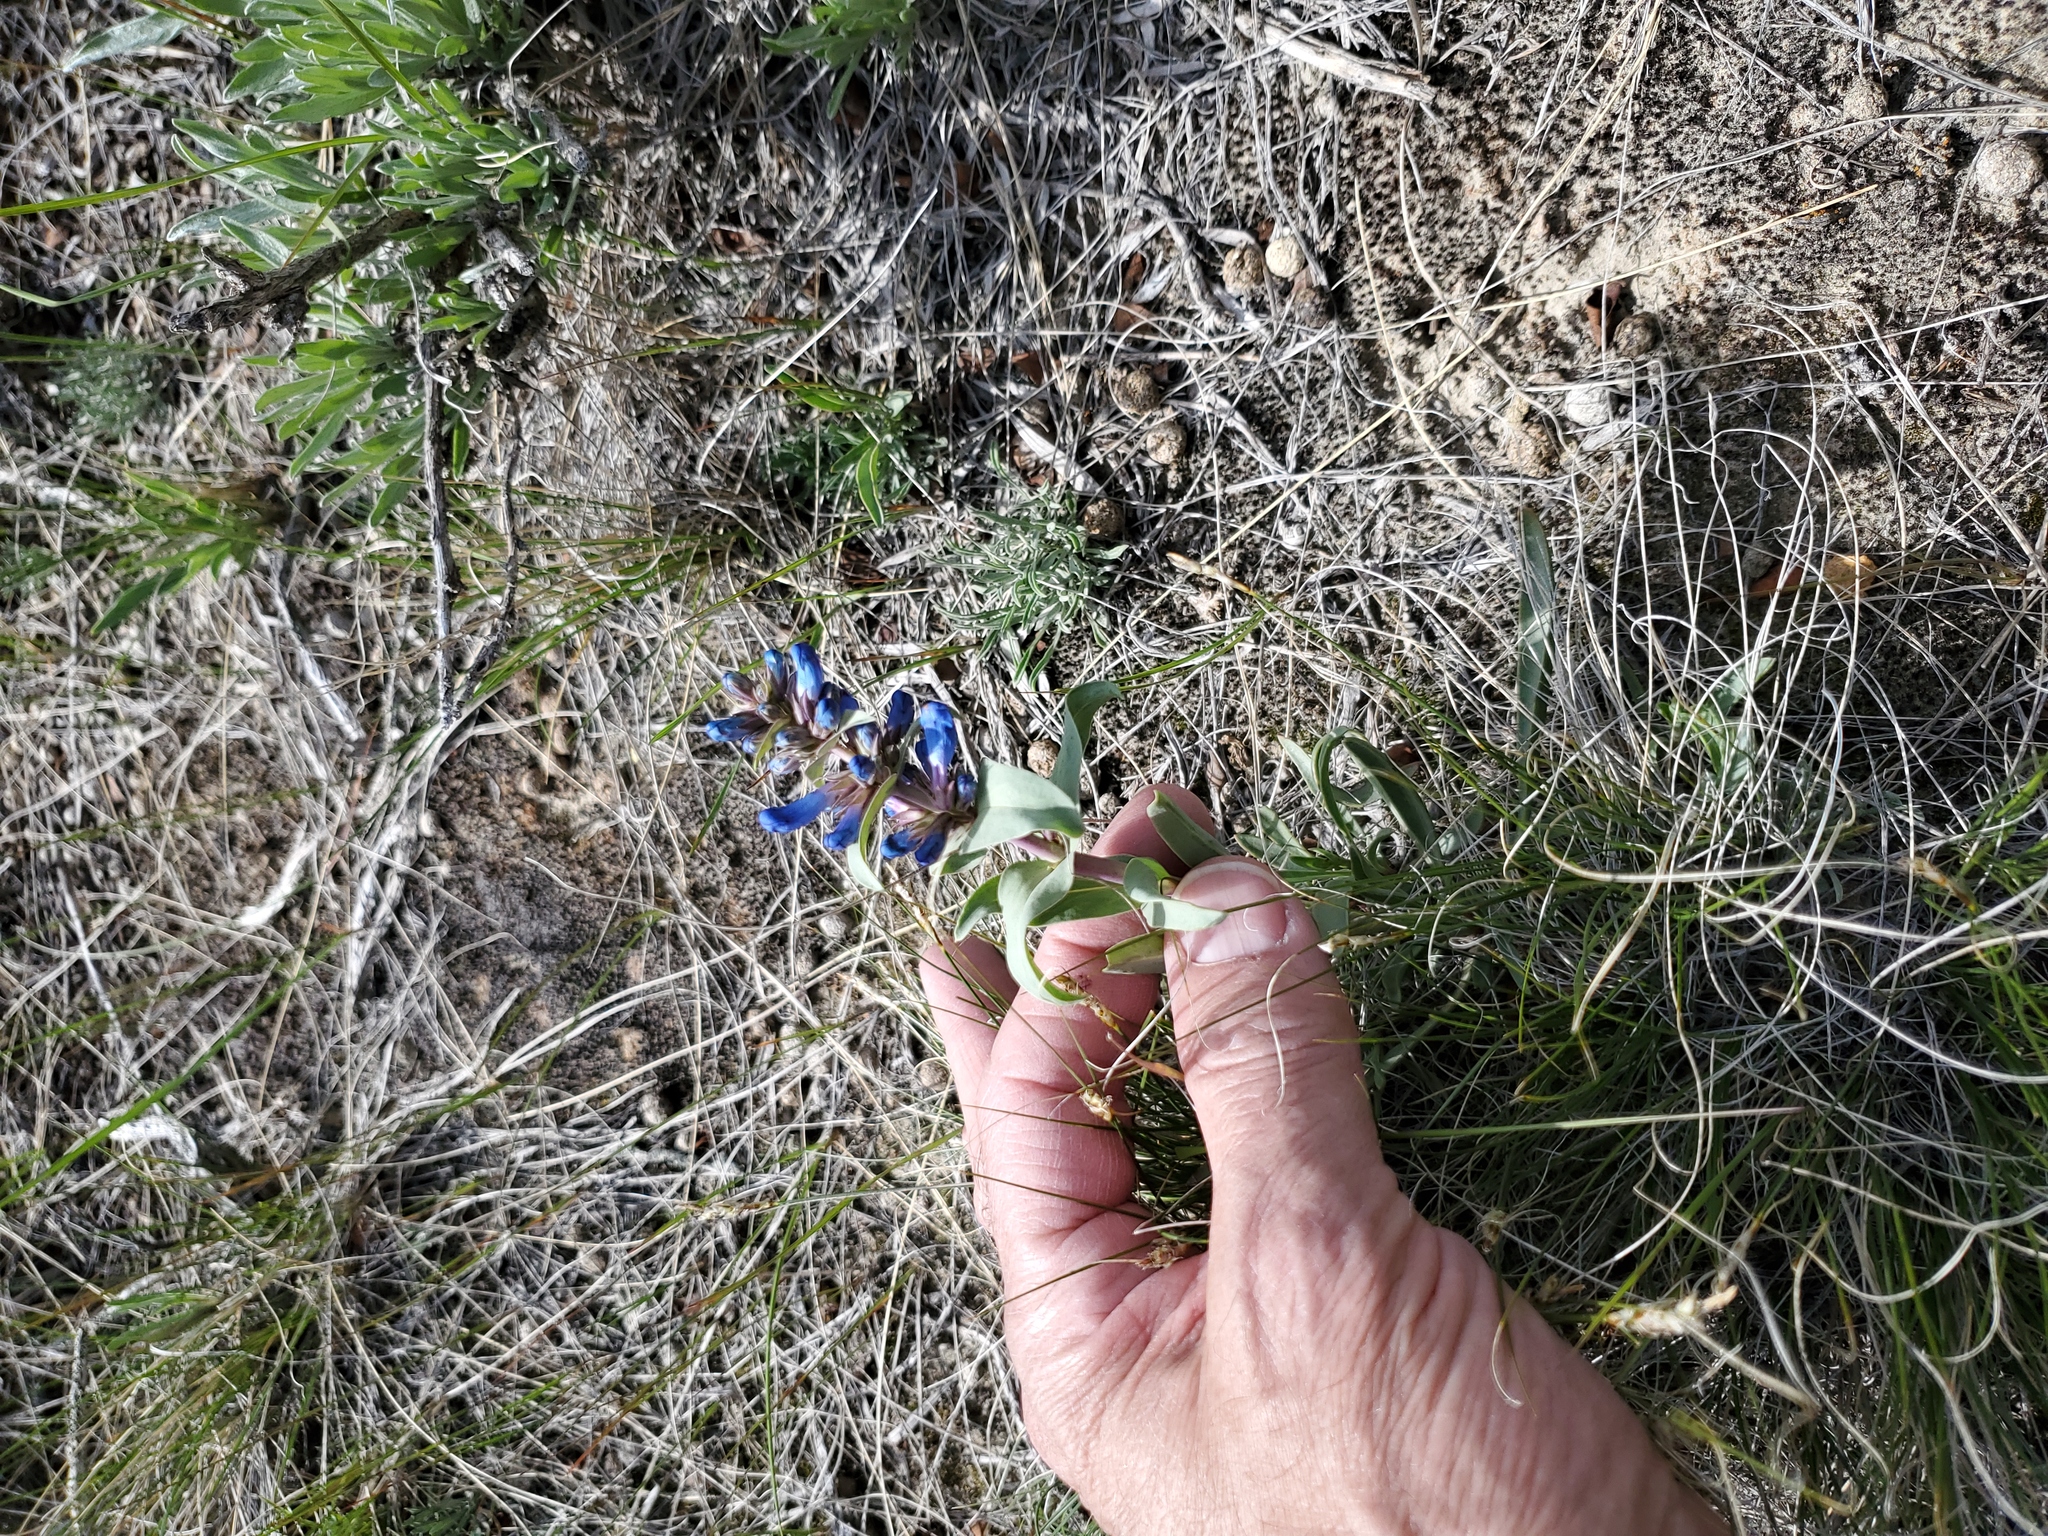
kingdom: Plantae
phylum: Tracheophyta
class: Magnoliopsida
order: Lamiales
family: Plantaginaceae
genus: Penstemon
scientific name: Penstemon nitidus
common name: Shining penstemon
